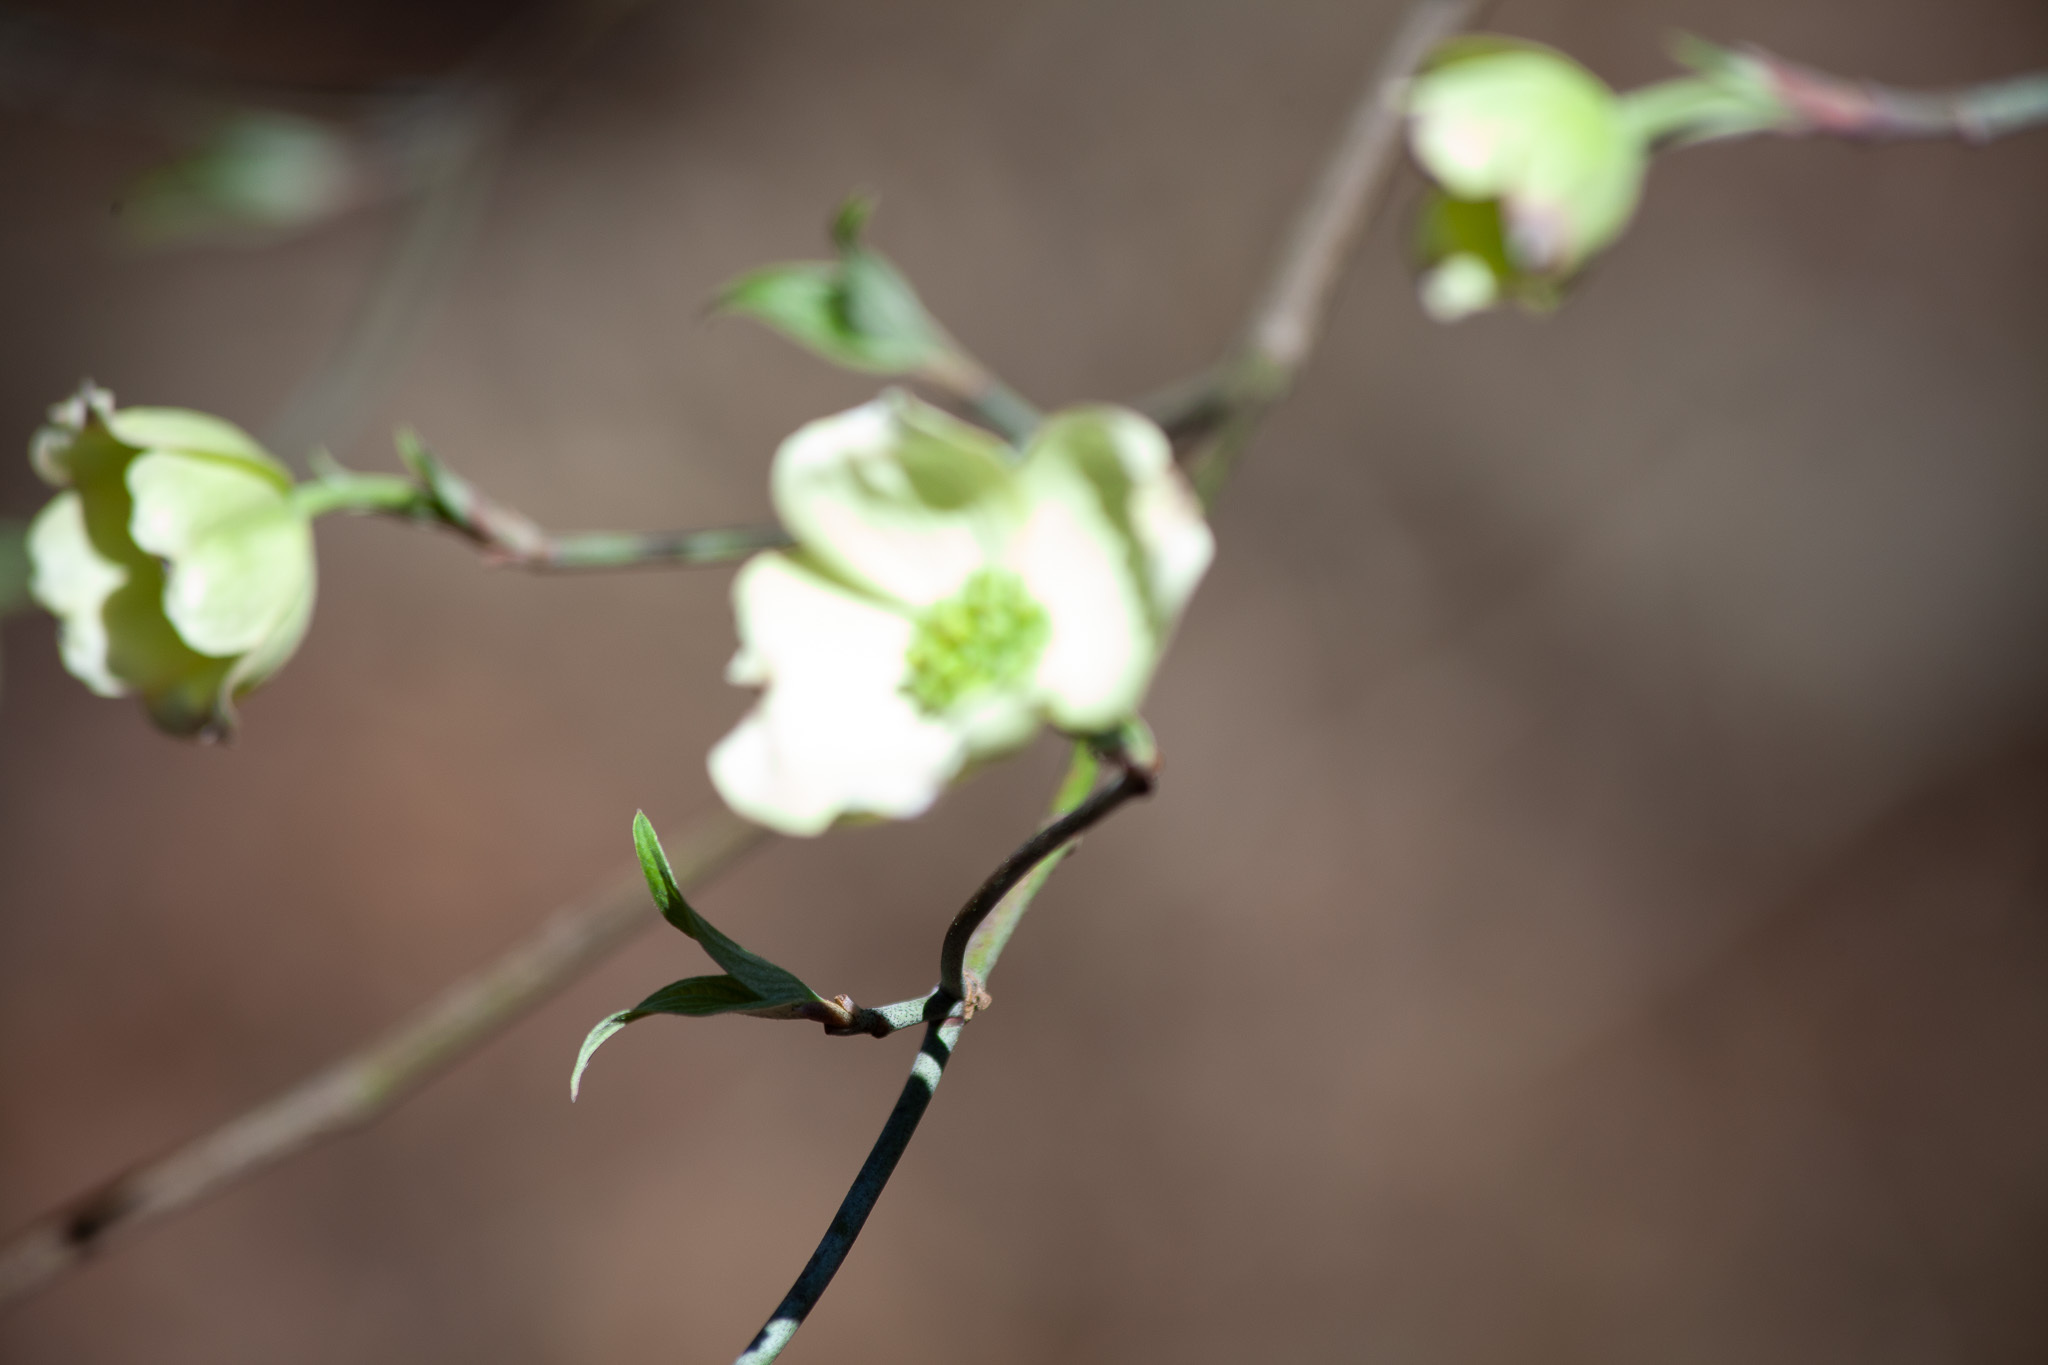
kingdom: Plantae
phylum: Tracheophyta
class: Magnoliopsida
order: Cornales
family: Cornaceae
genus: Cornus
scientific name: Cornus florida
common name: Flowering dogwood
